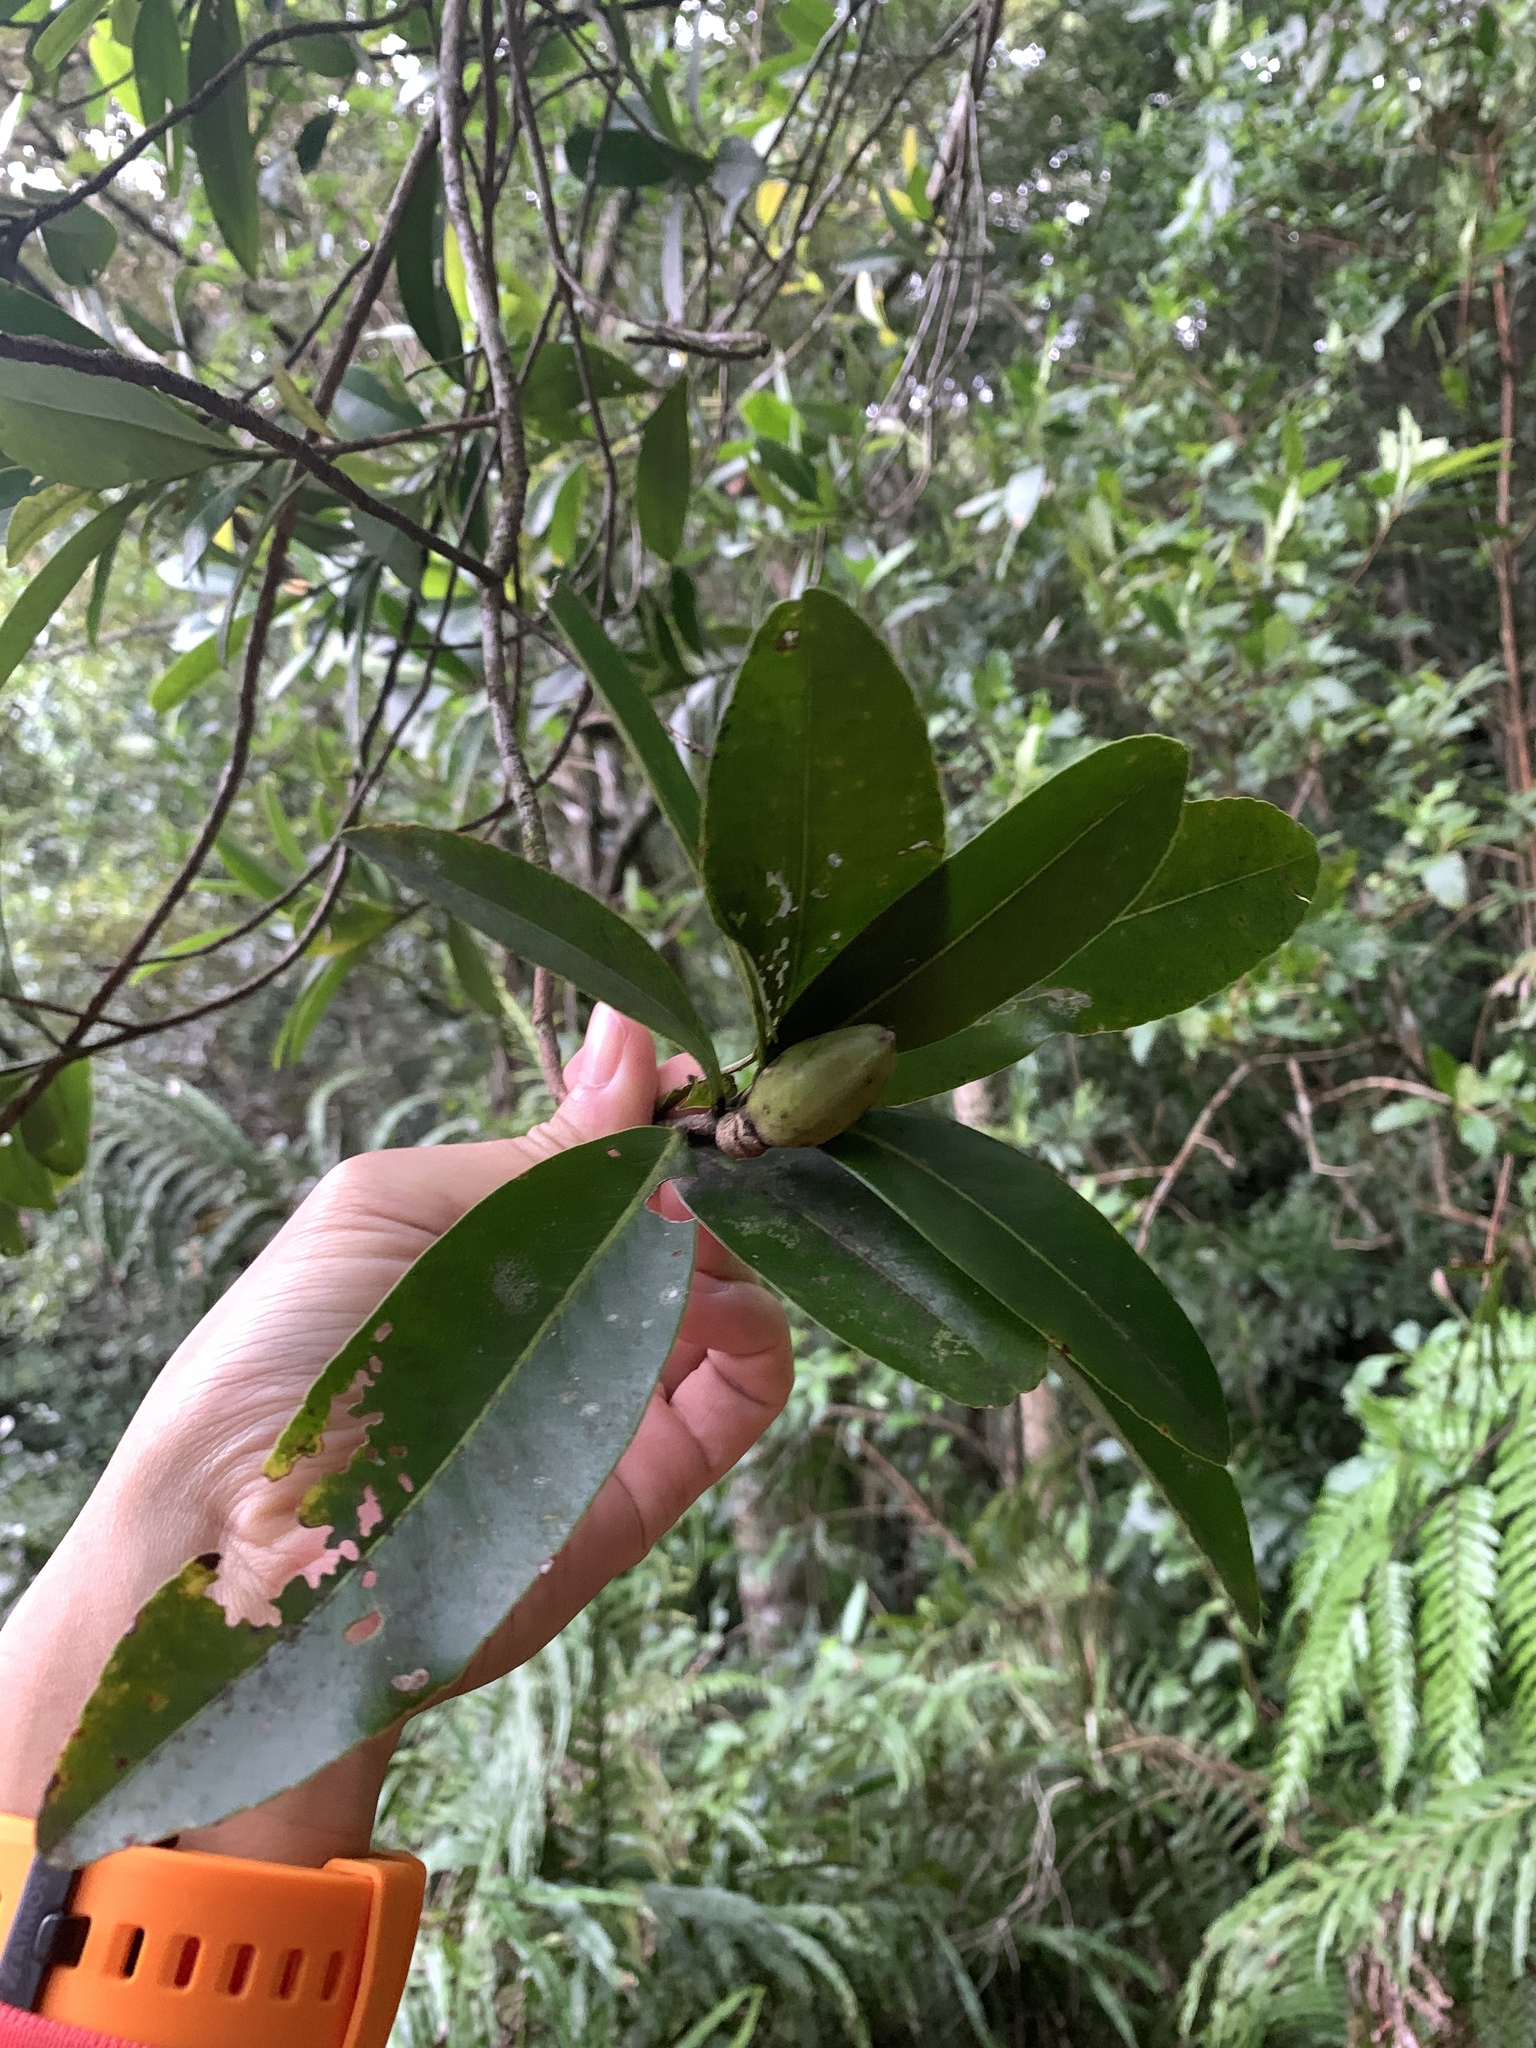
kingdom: Plantae
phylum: Tracheophyta
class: Magnoliopsida
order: Ericales
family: Theaceae
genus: Polyspora
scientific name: Polyspora axillaris
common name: Fried egg tree
